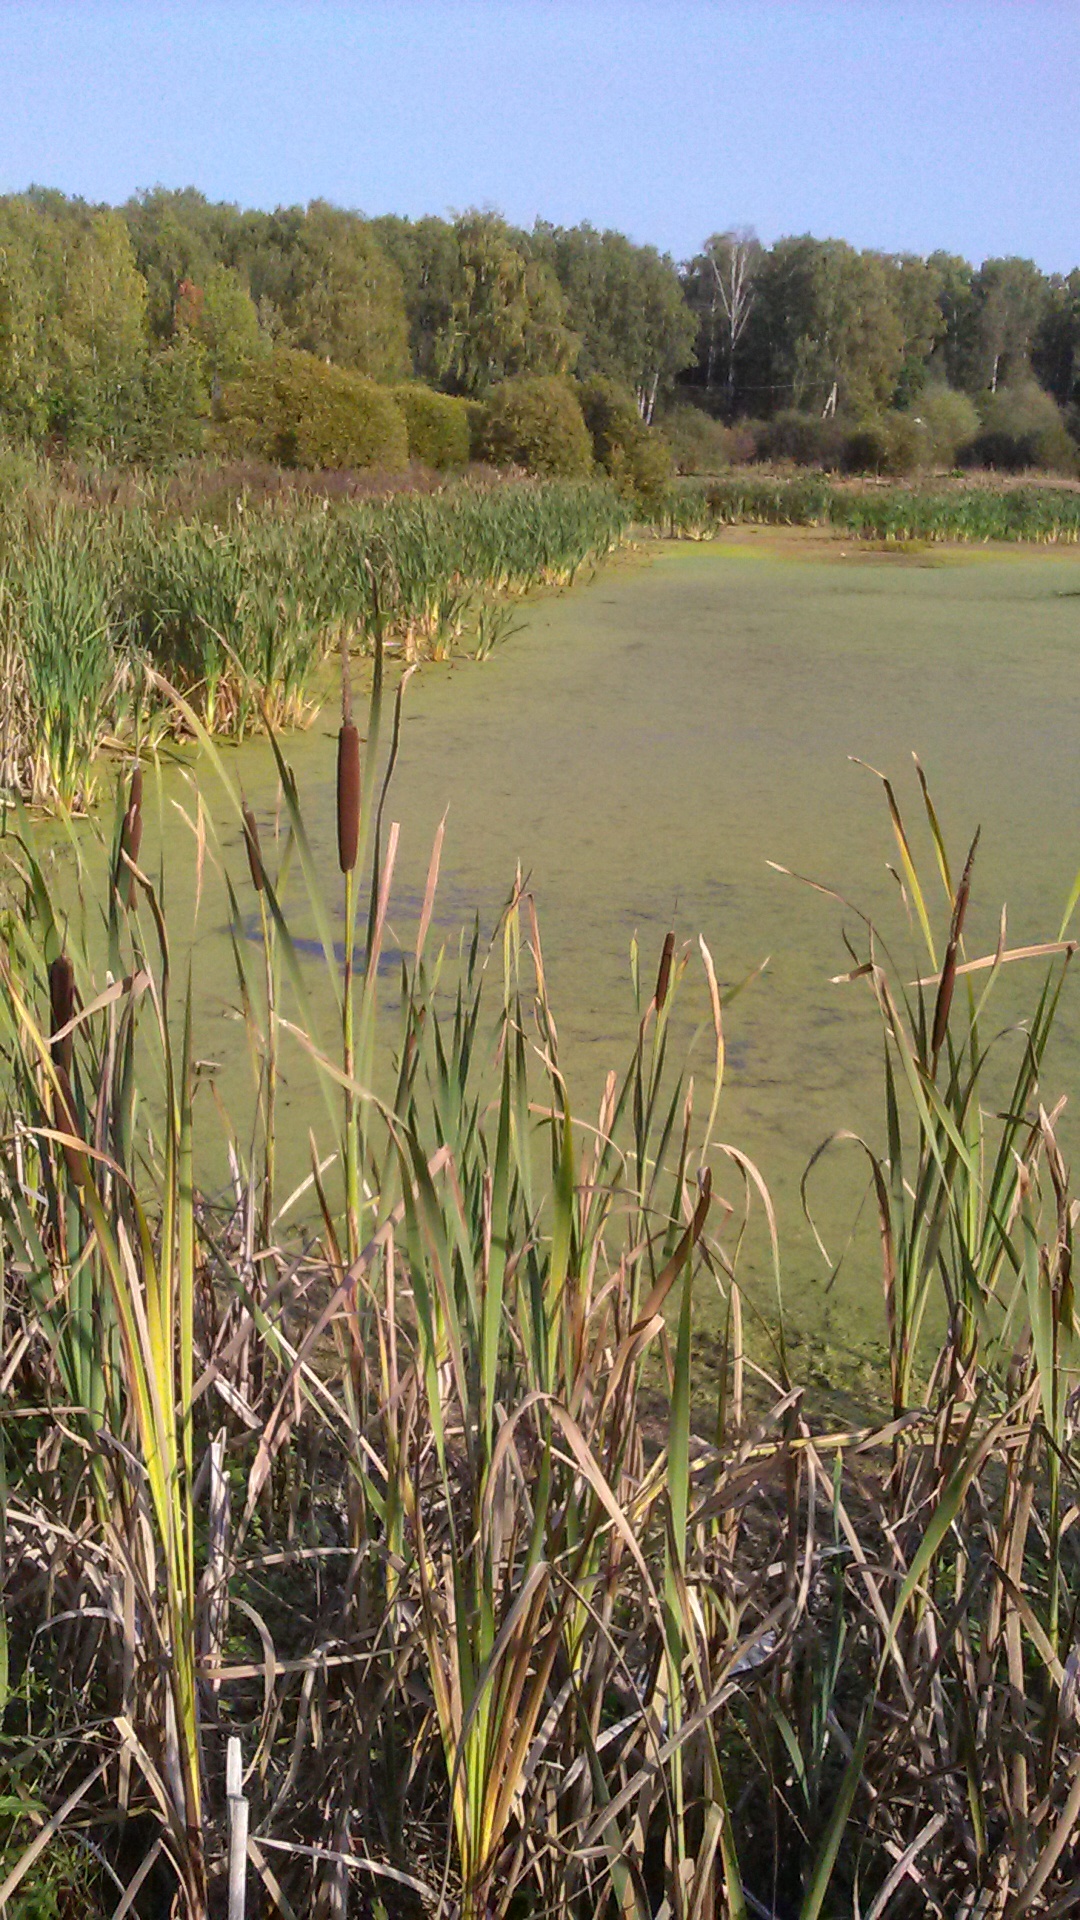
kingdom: Plantae
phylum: Tracheophyta
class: Liliopsida
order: Poales
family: Typhaceae
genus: Typha
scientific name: Typha latifolia
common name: Broadleaf cattail
